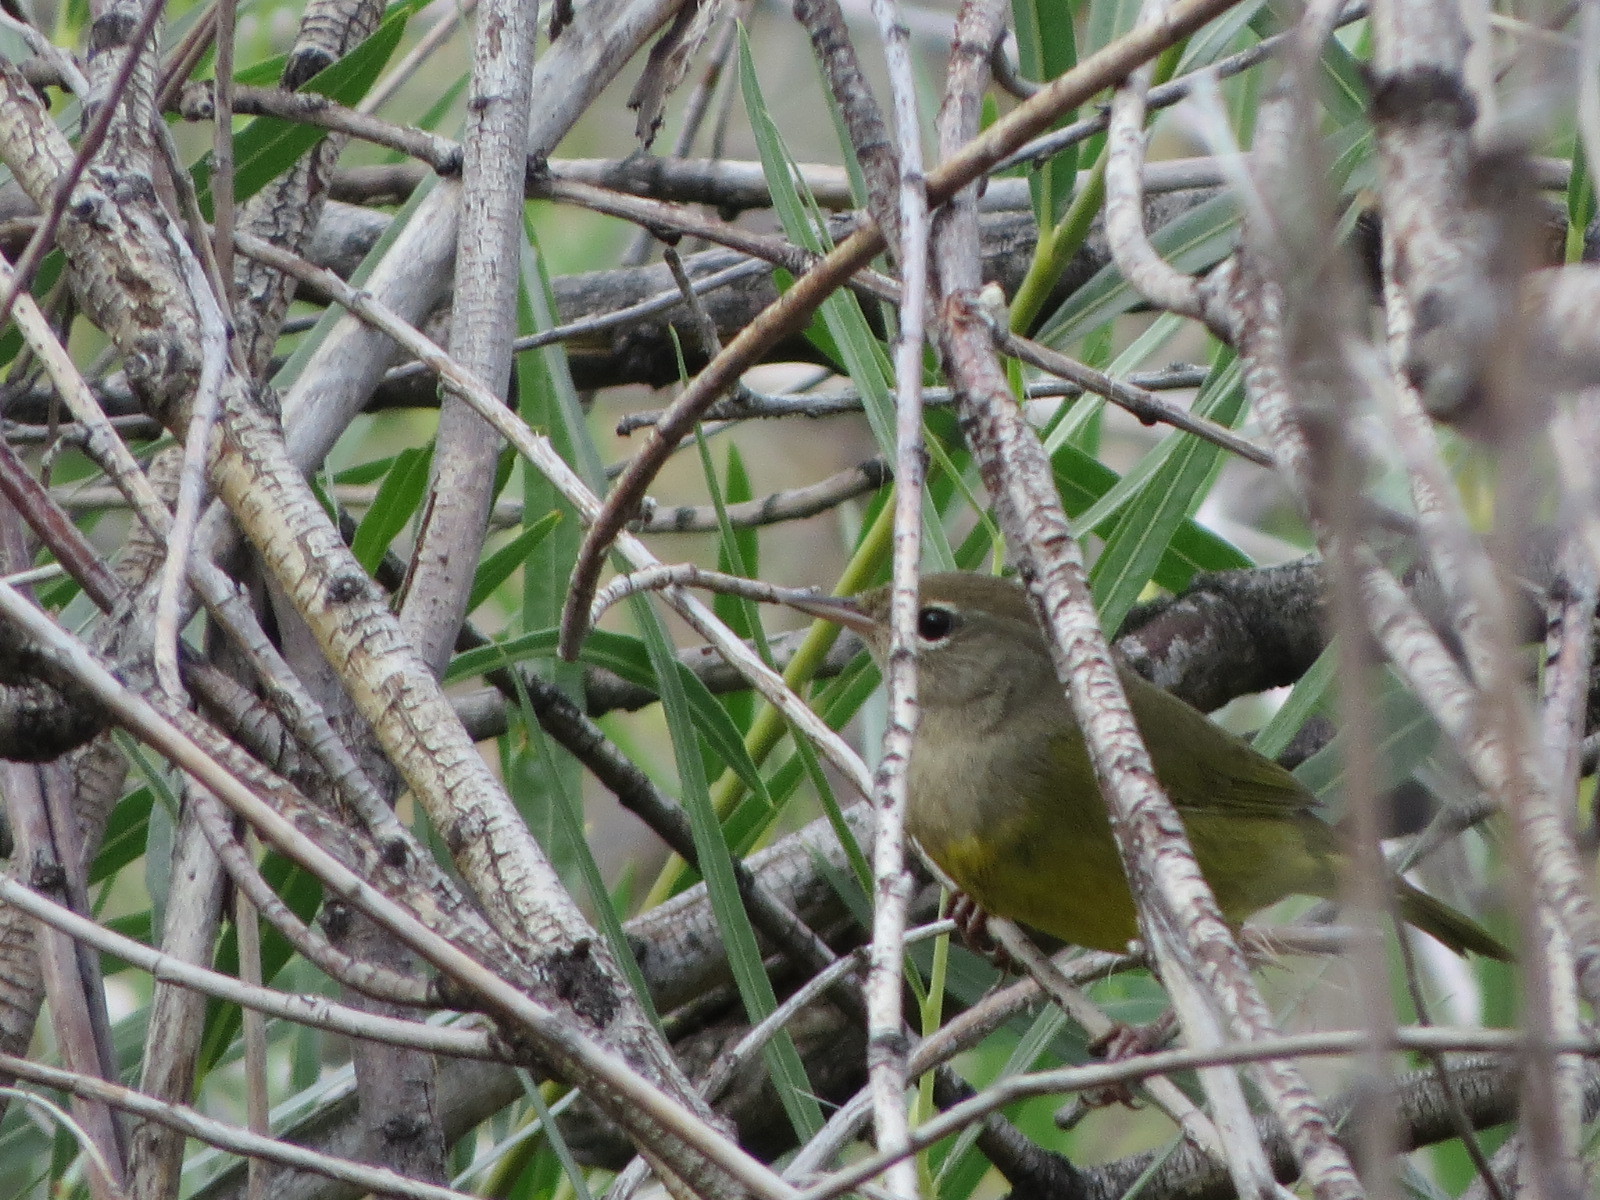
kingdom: Animalia
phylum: Chordata
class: Aves
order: Passeriformes
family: Parulidae
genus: Geothlypis
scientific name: Geothlypis tolmiei
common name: Macgillivray's warbler
